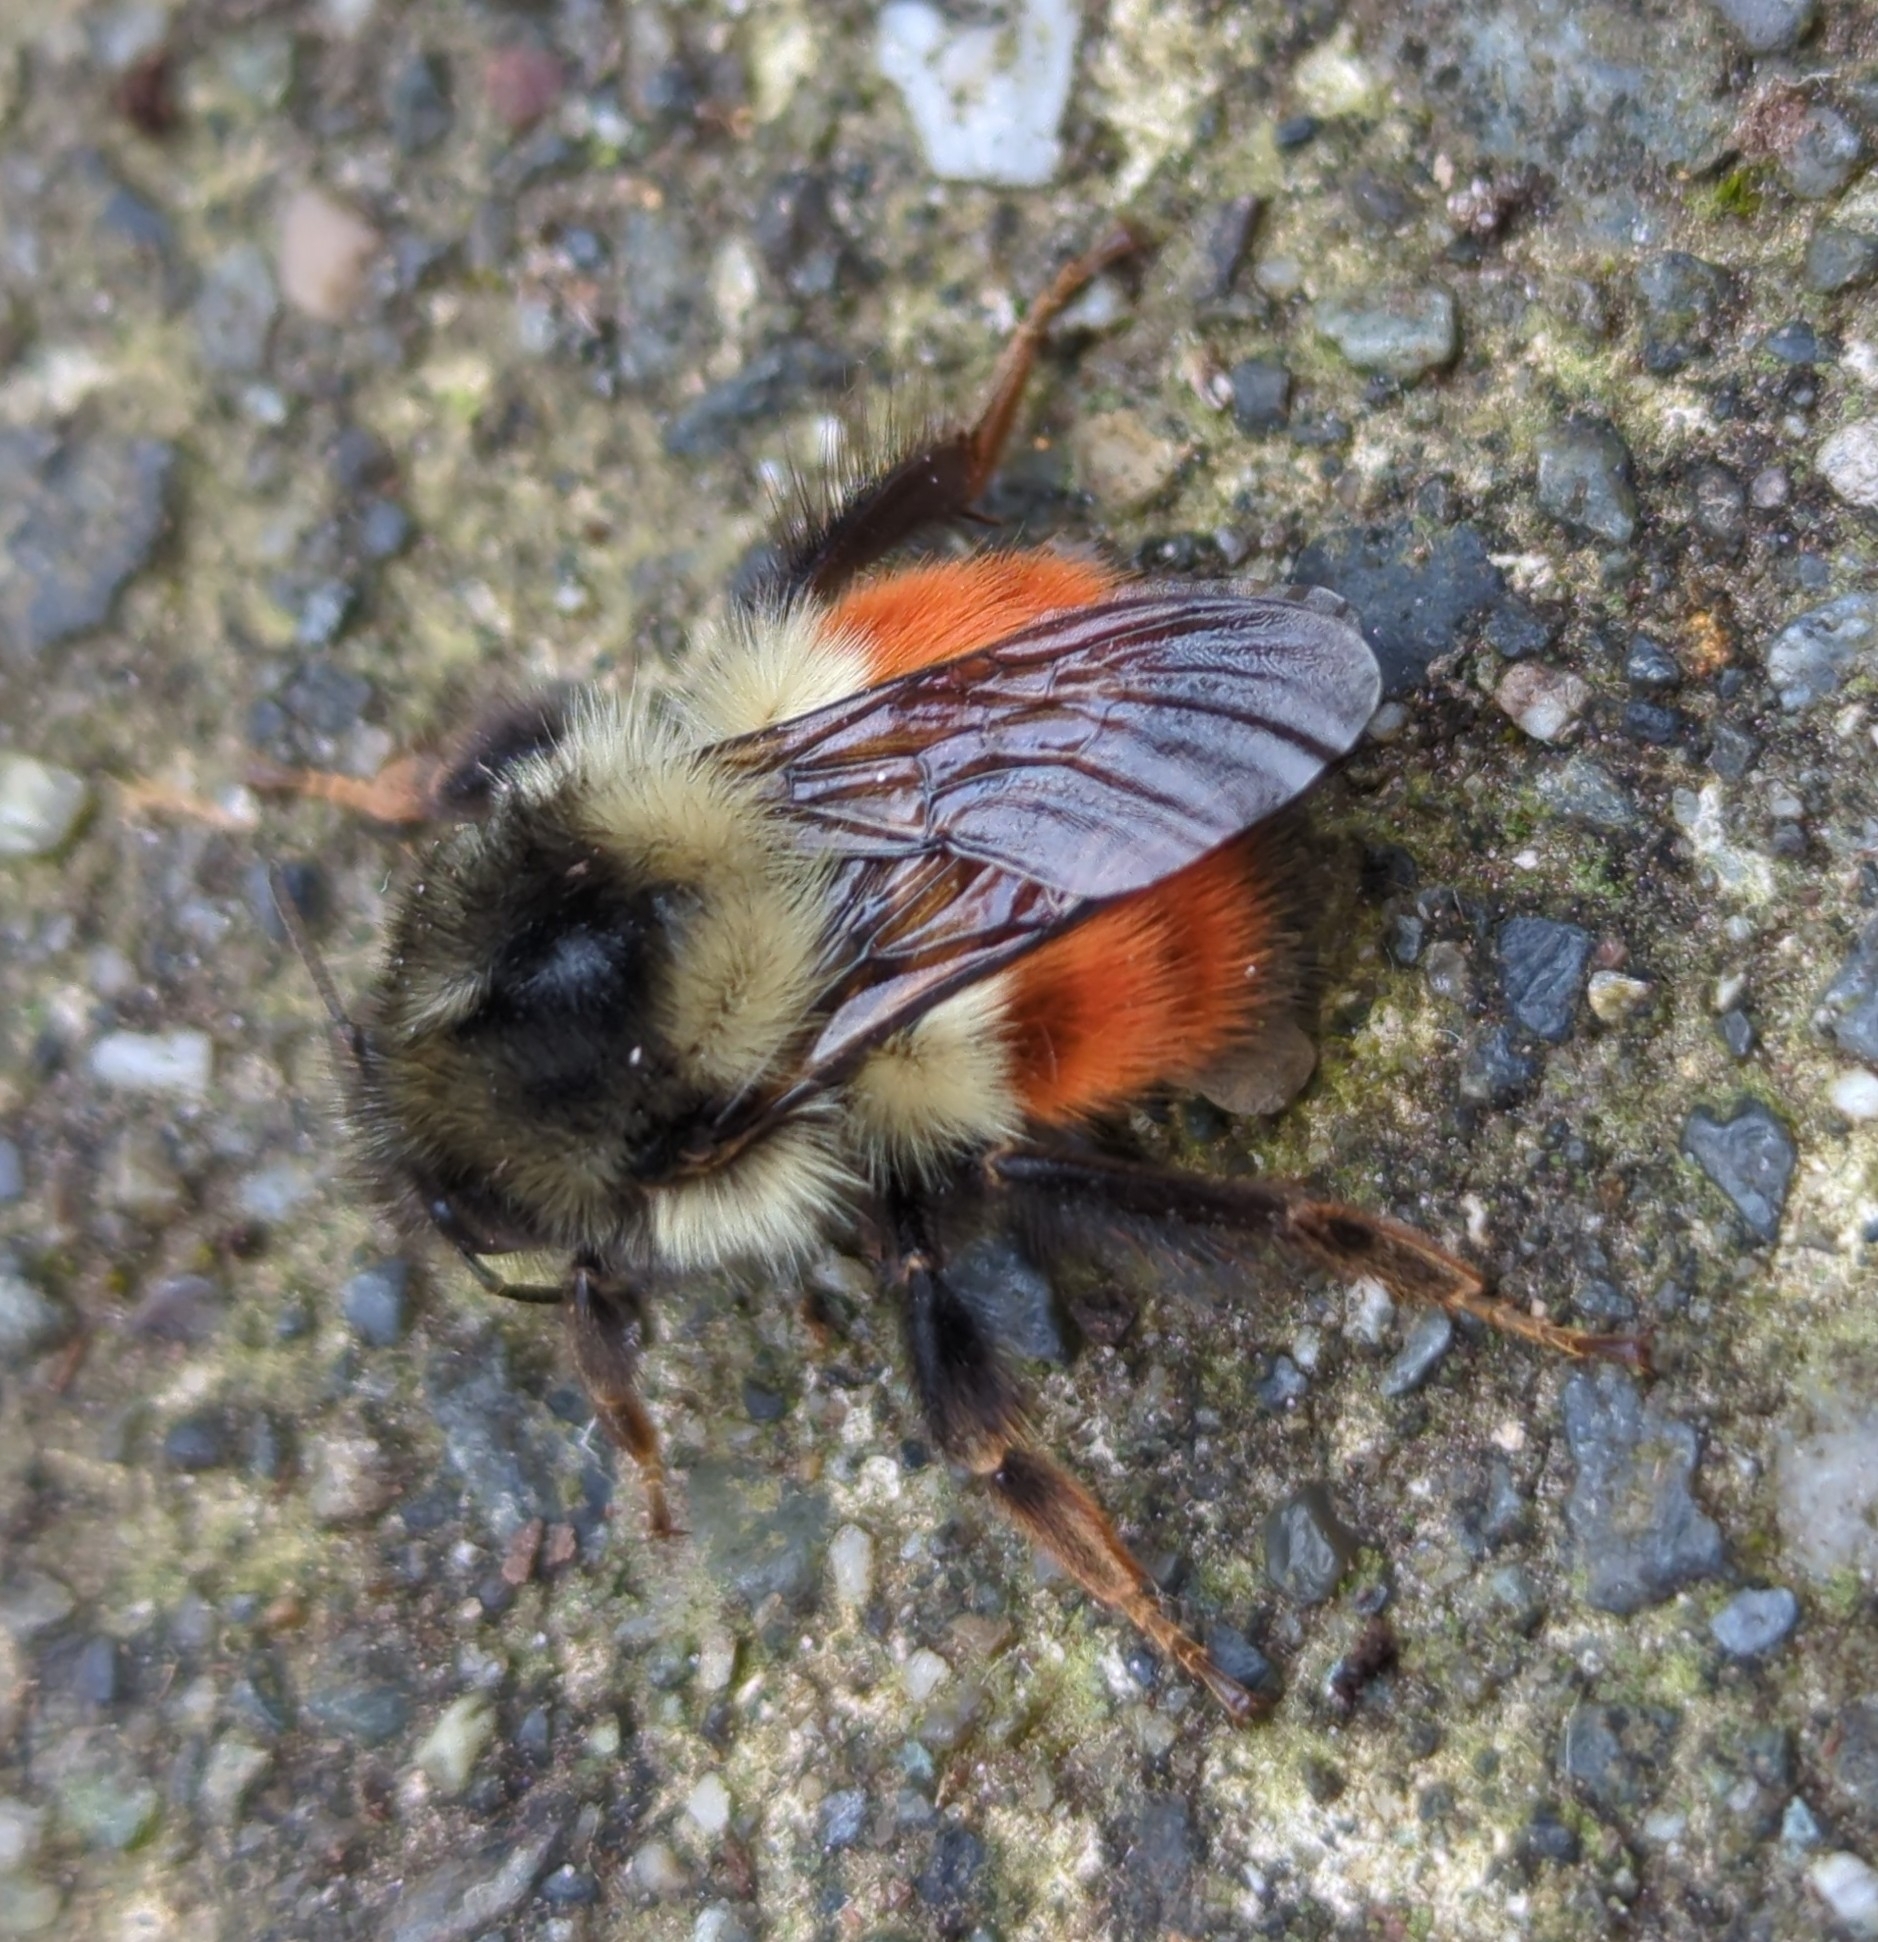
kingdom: Animalia
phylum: Arthropoda
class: Insecta
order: Hymenoptera
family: Apidae
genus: Bombus
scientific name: Bombus melanopygus
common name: Black tail bumble bee
